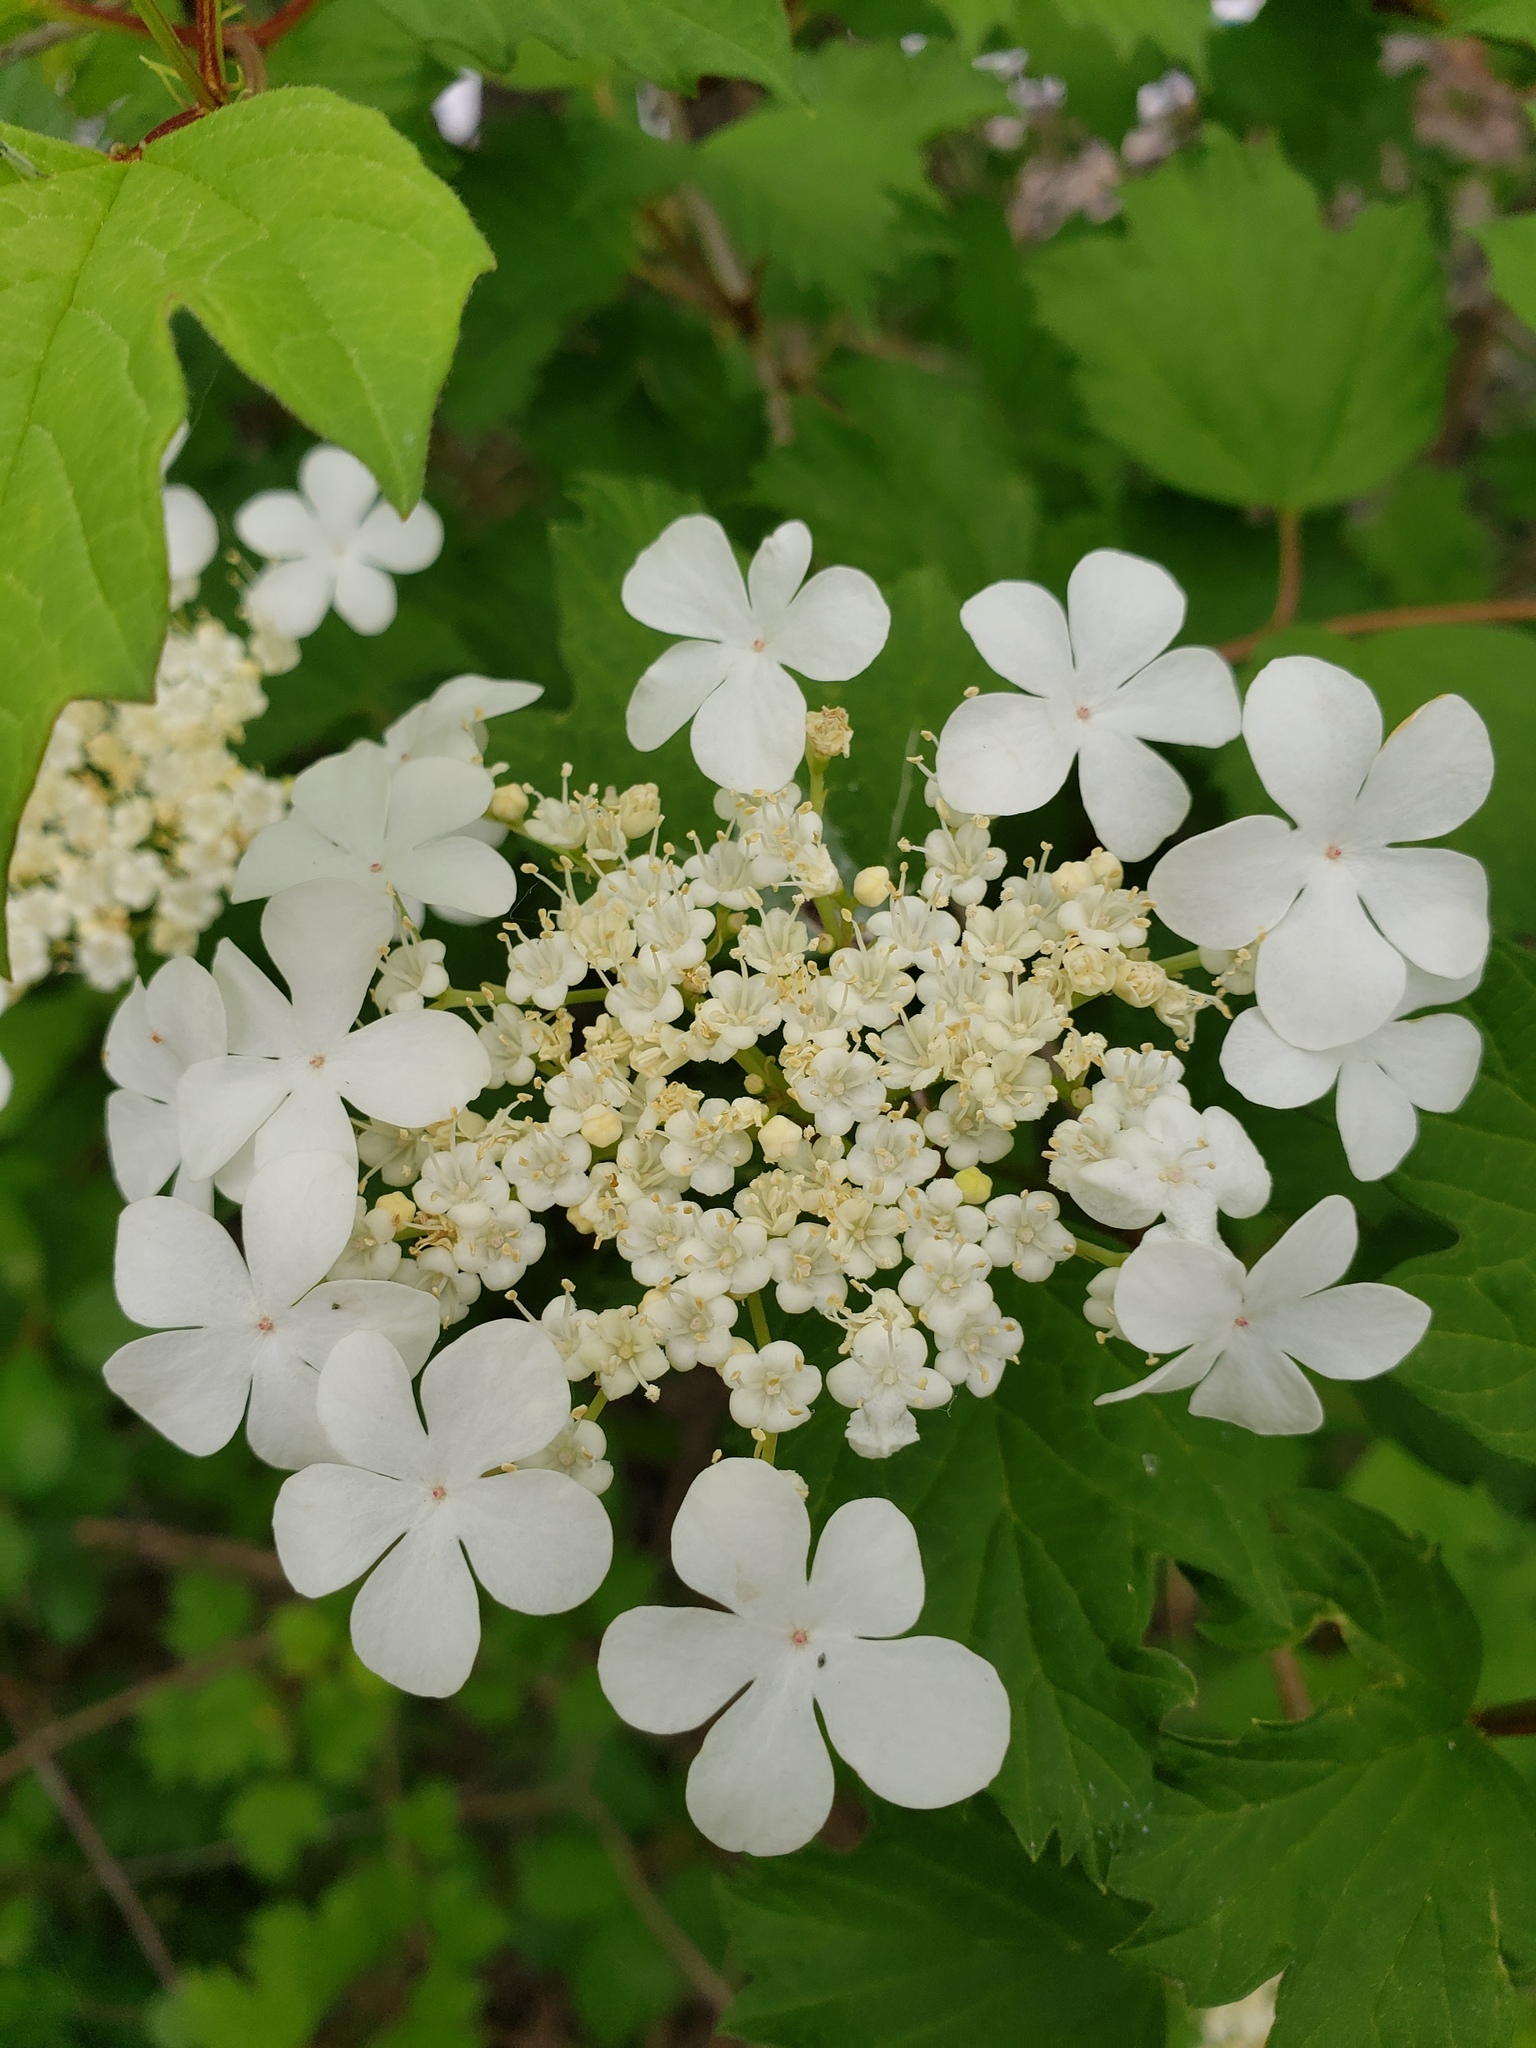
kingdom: Plantae
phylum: Tracheophyta
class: Magnoliopsida
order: Dipsacales
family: Viburnaceae
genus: Viburnum
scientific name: Viburnum opulus
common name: Guelder-rose
